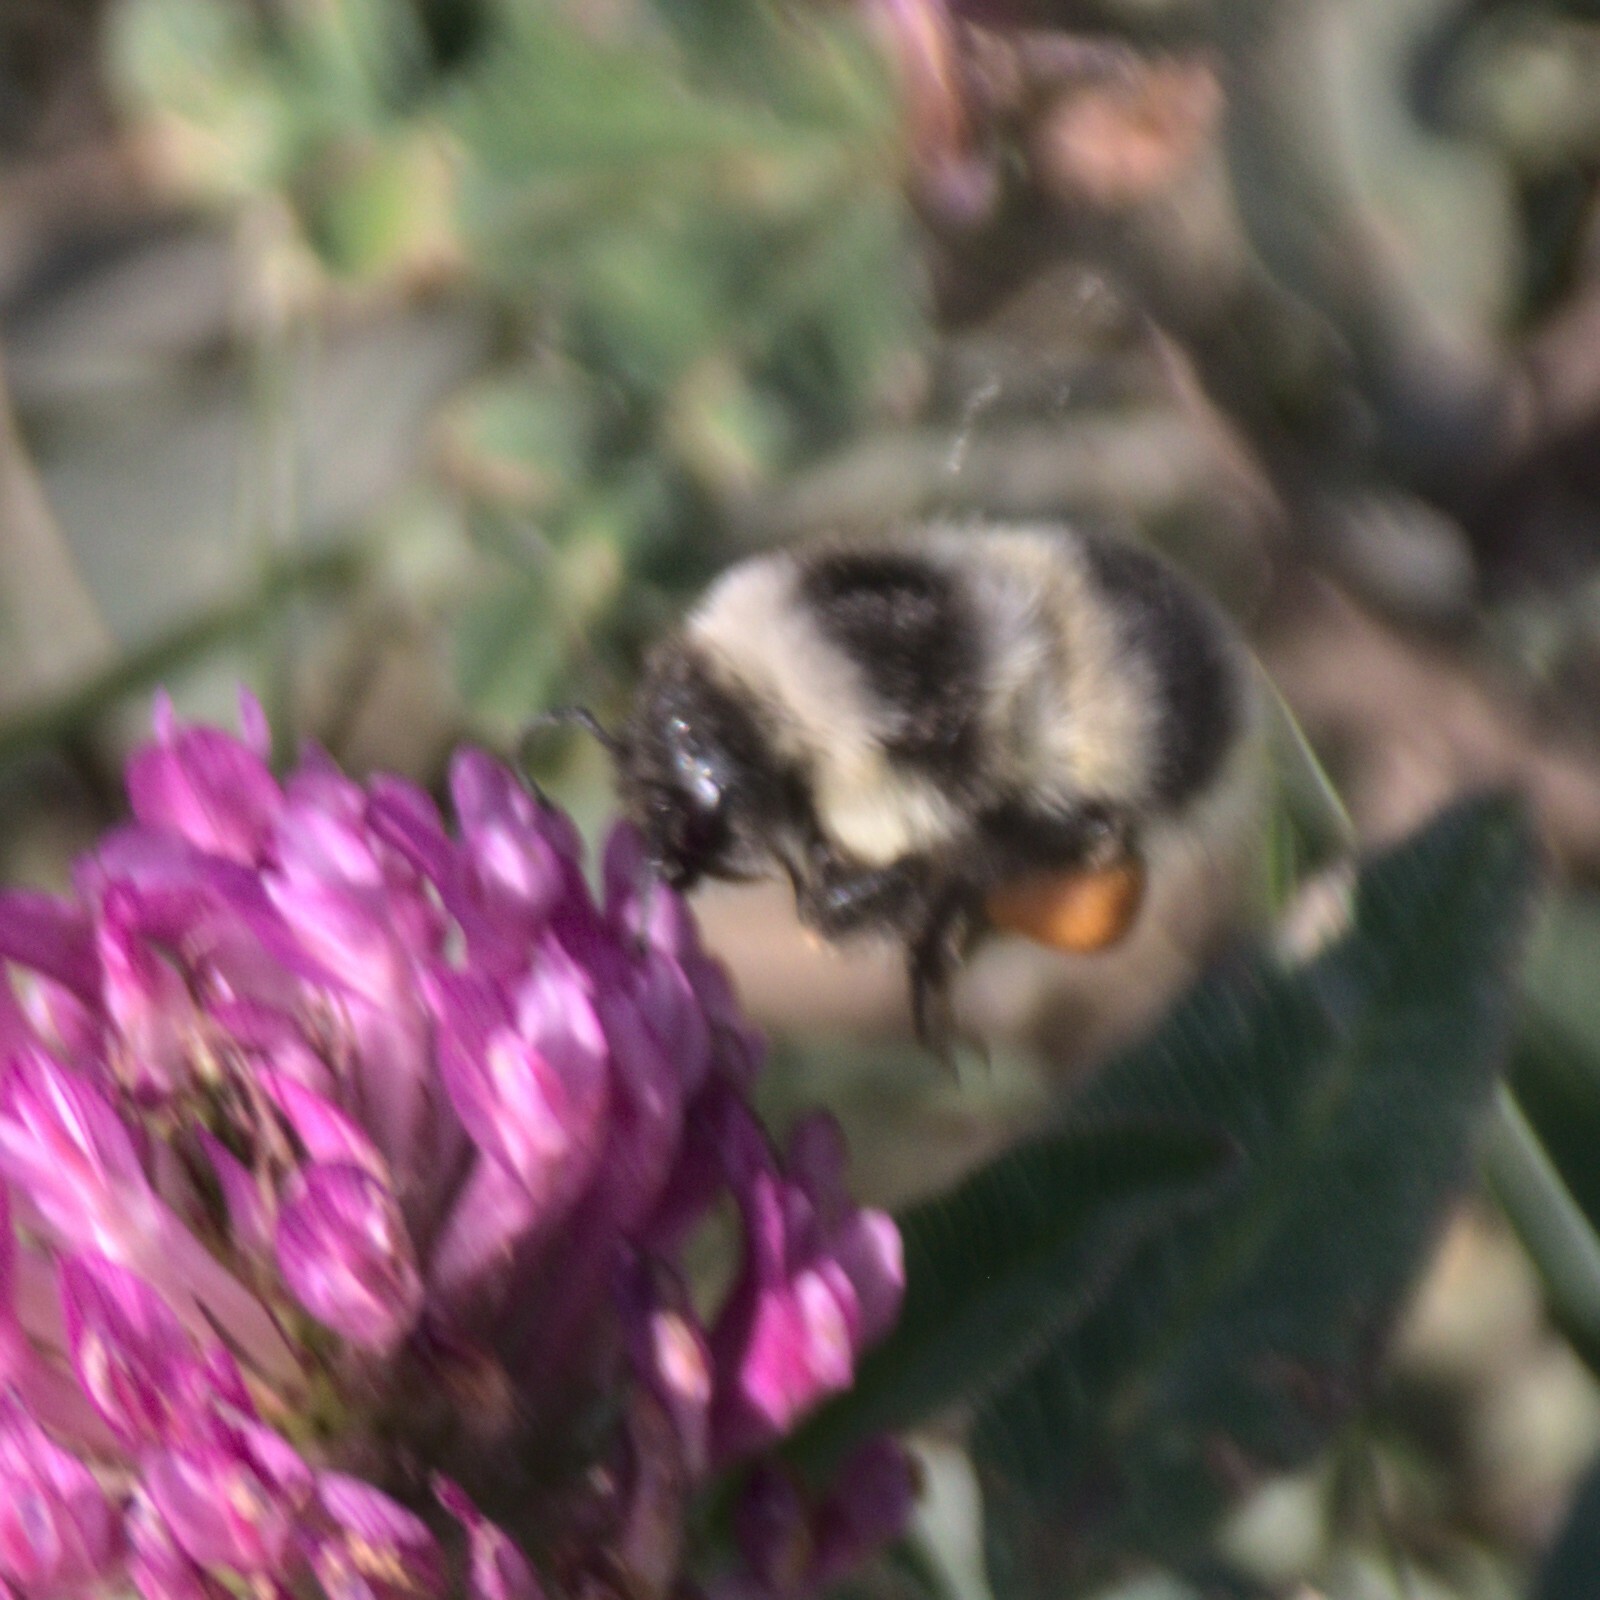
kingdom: Animalia
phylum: Arthropoda
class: Insecta
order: Hymenoptera
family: Apidae
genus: Bombus
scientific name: Bombus patagiatus
